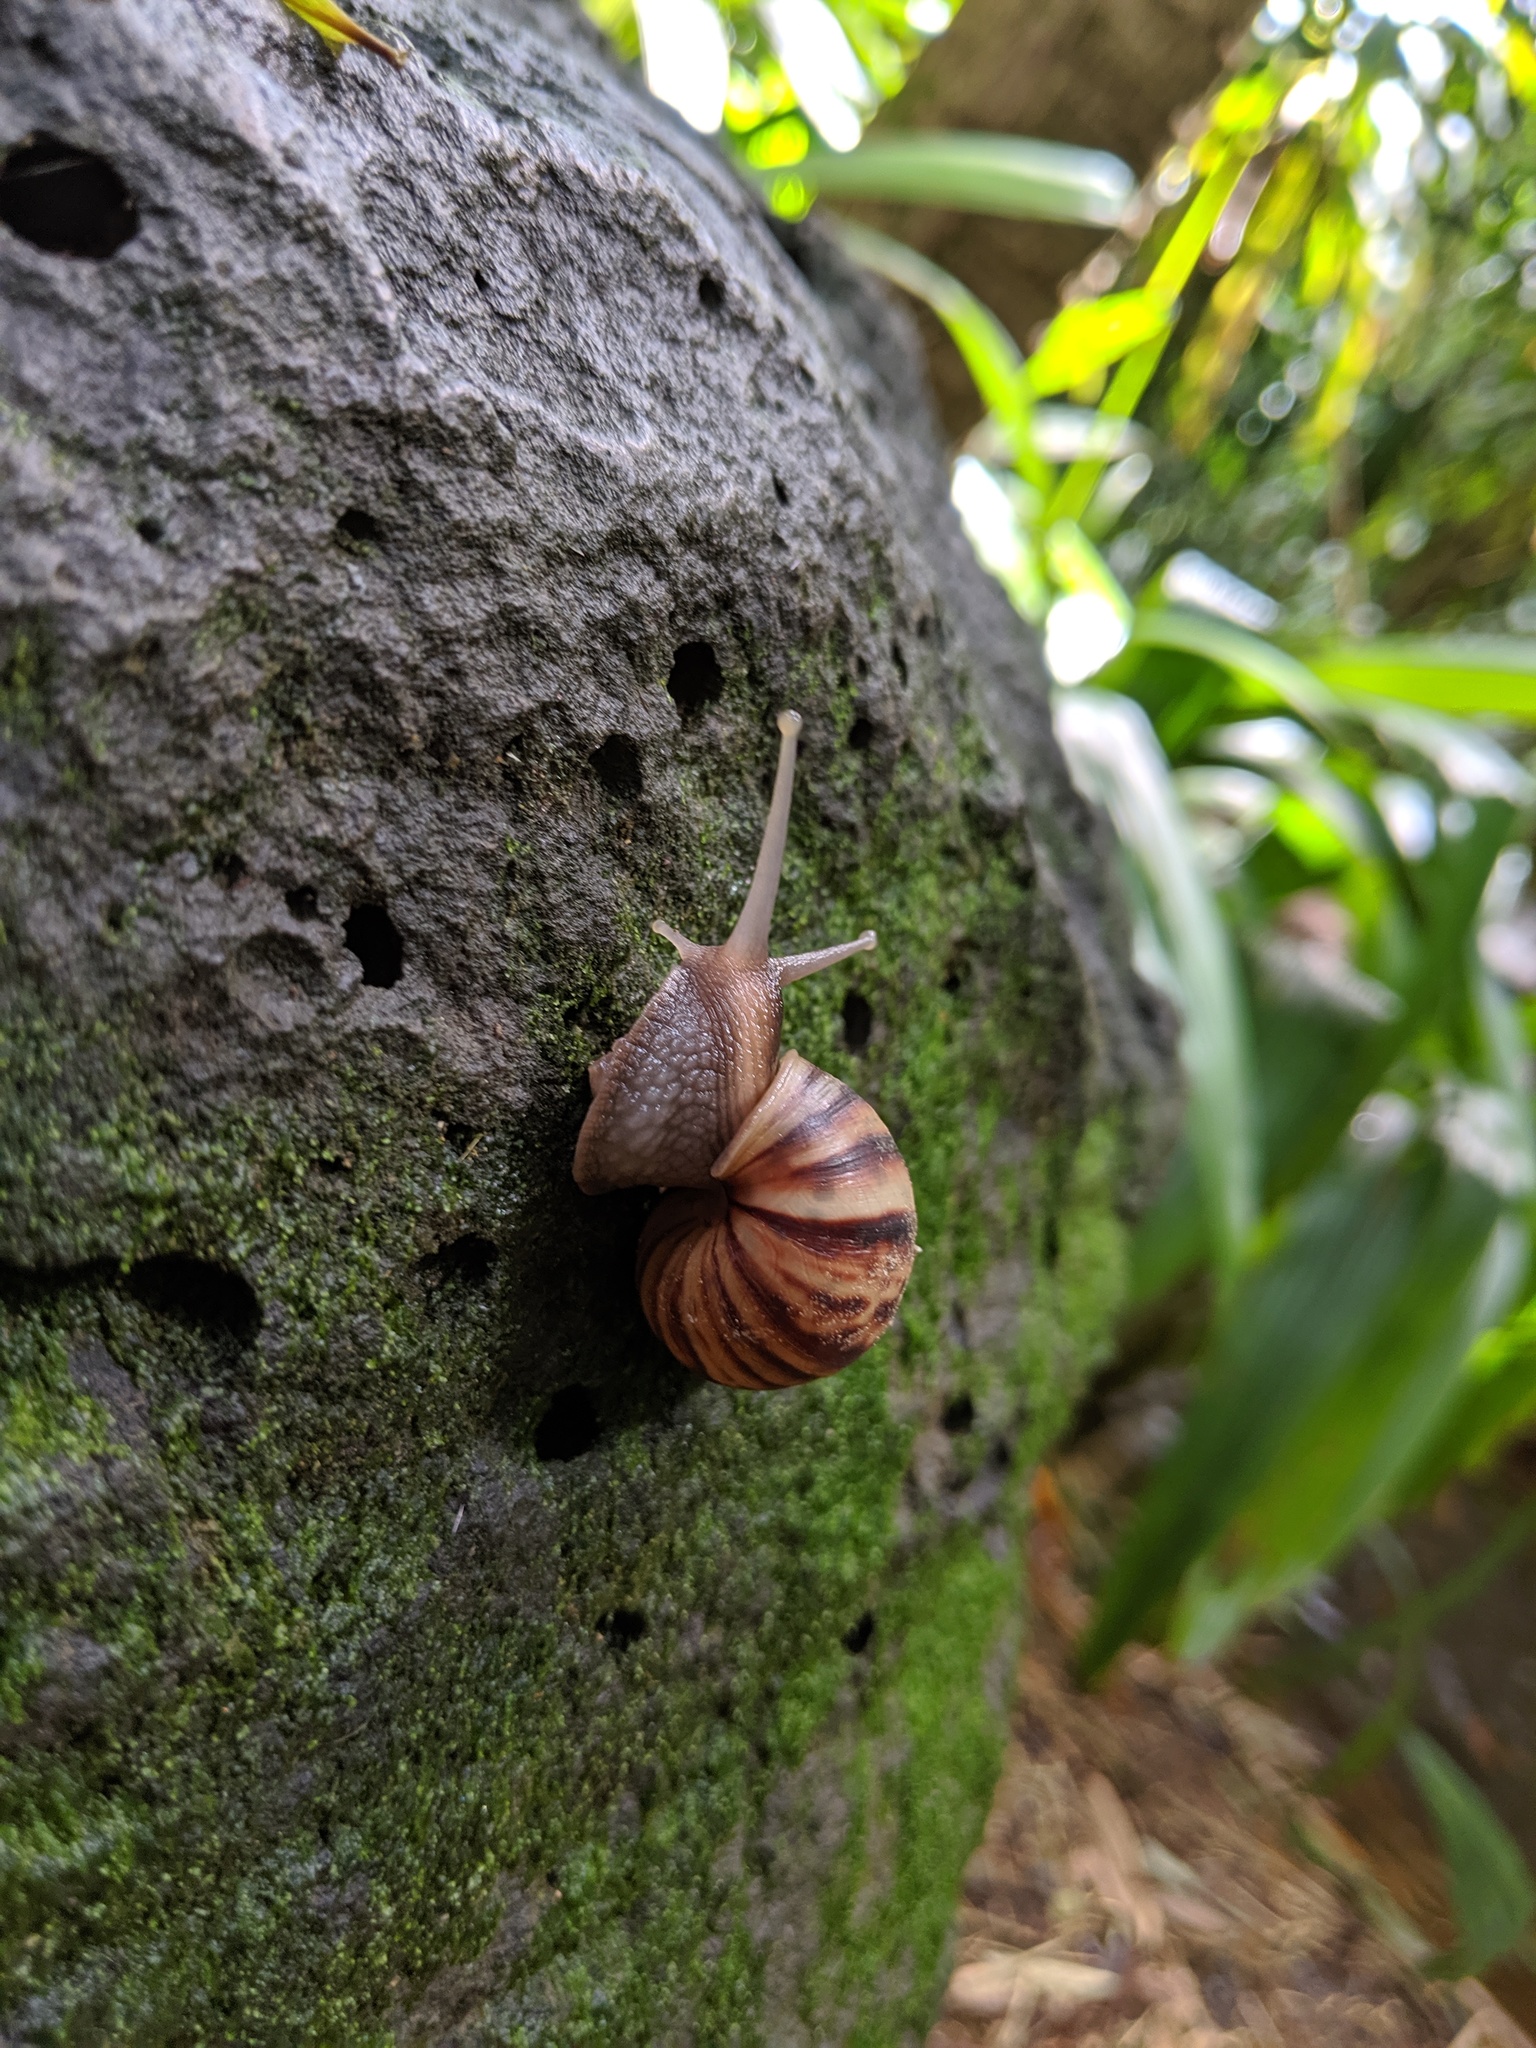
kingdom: Animalia
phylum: Mollusca
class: Gastropoda
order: Stylommatophora
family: Achatinidae
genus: Lissachatina
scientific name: Lissachatina fulica
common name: Giant african snail
